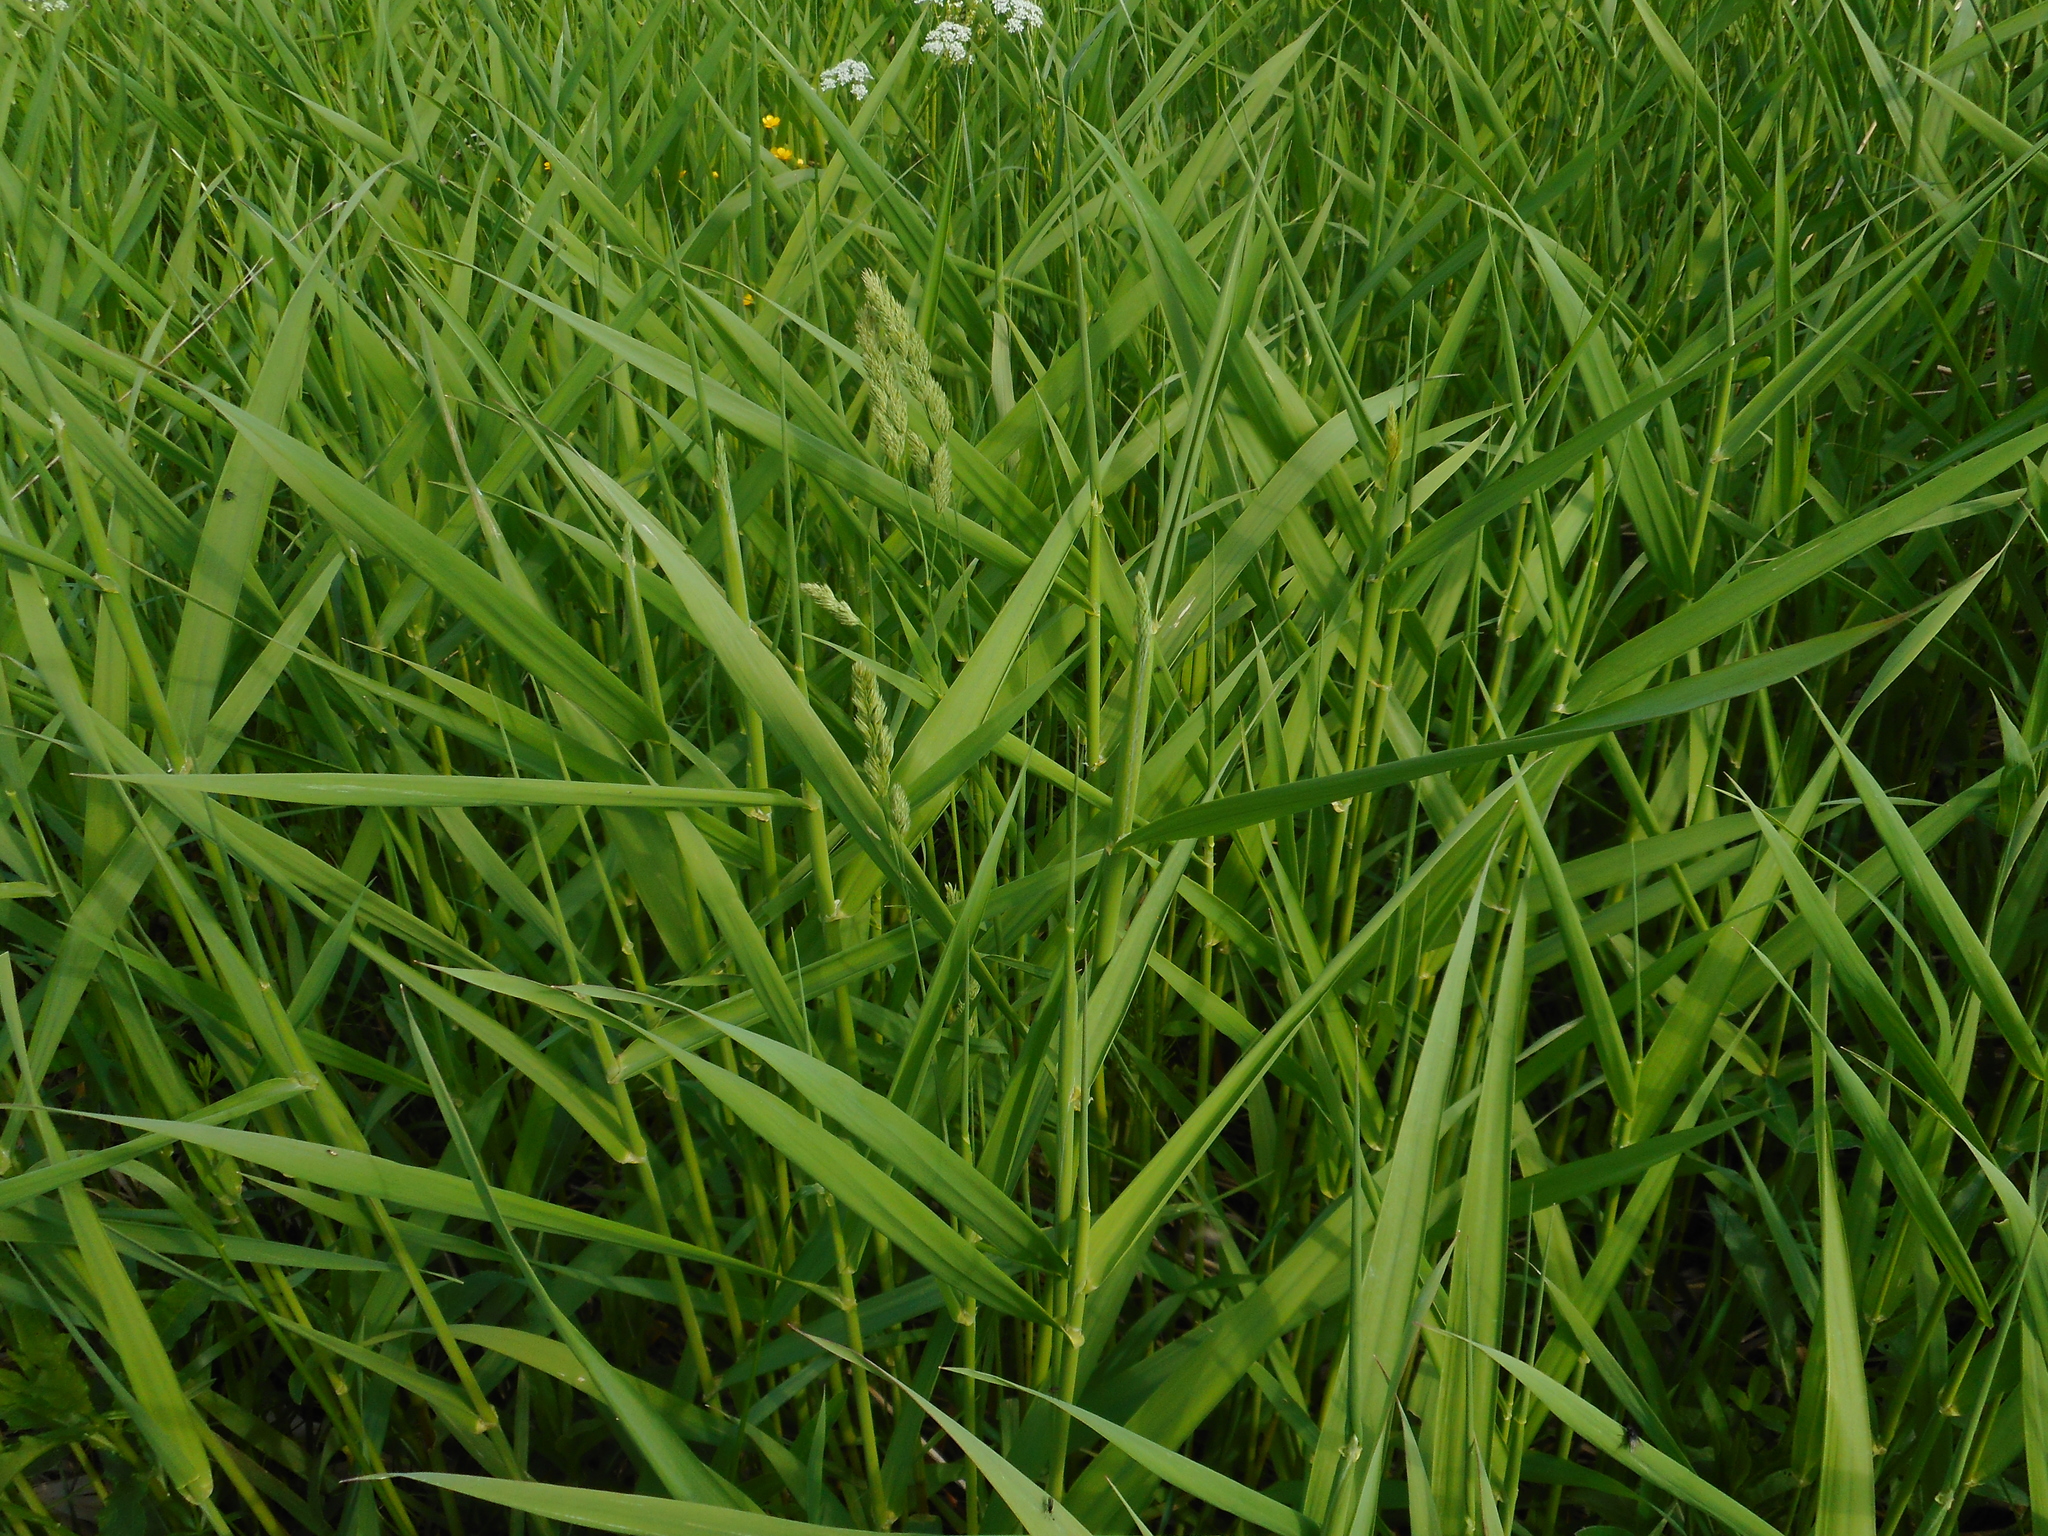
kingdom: Plantae
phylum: Tracheophyta
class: Liliopsida
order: Poales
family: Poaceae
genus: Phalaris
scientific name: Phalaris arundinacea
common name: Reed canary-grass
